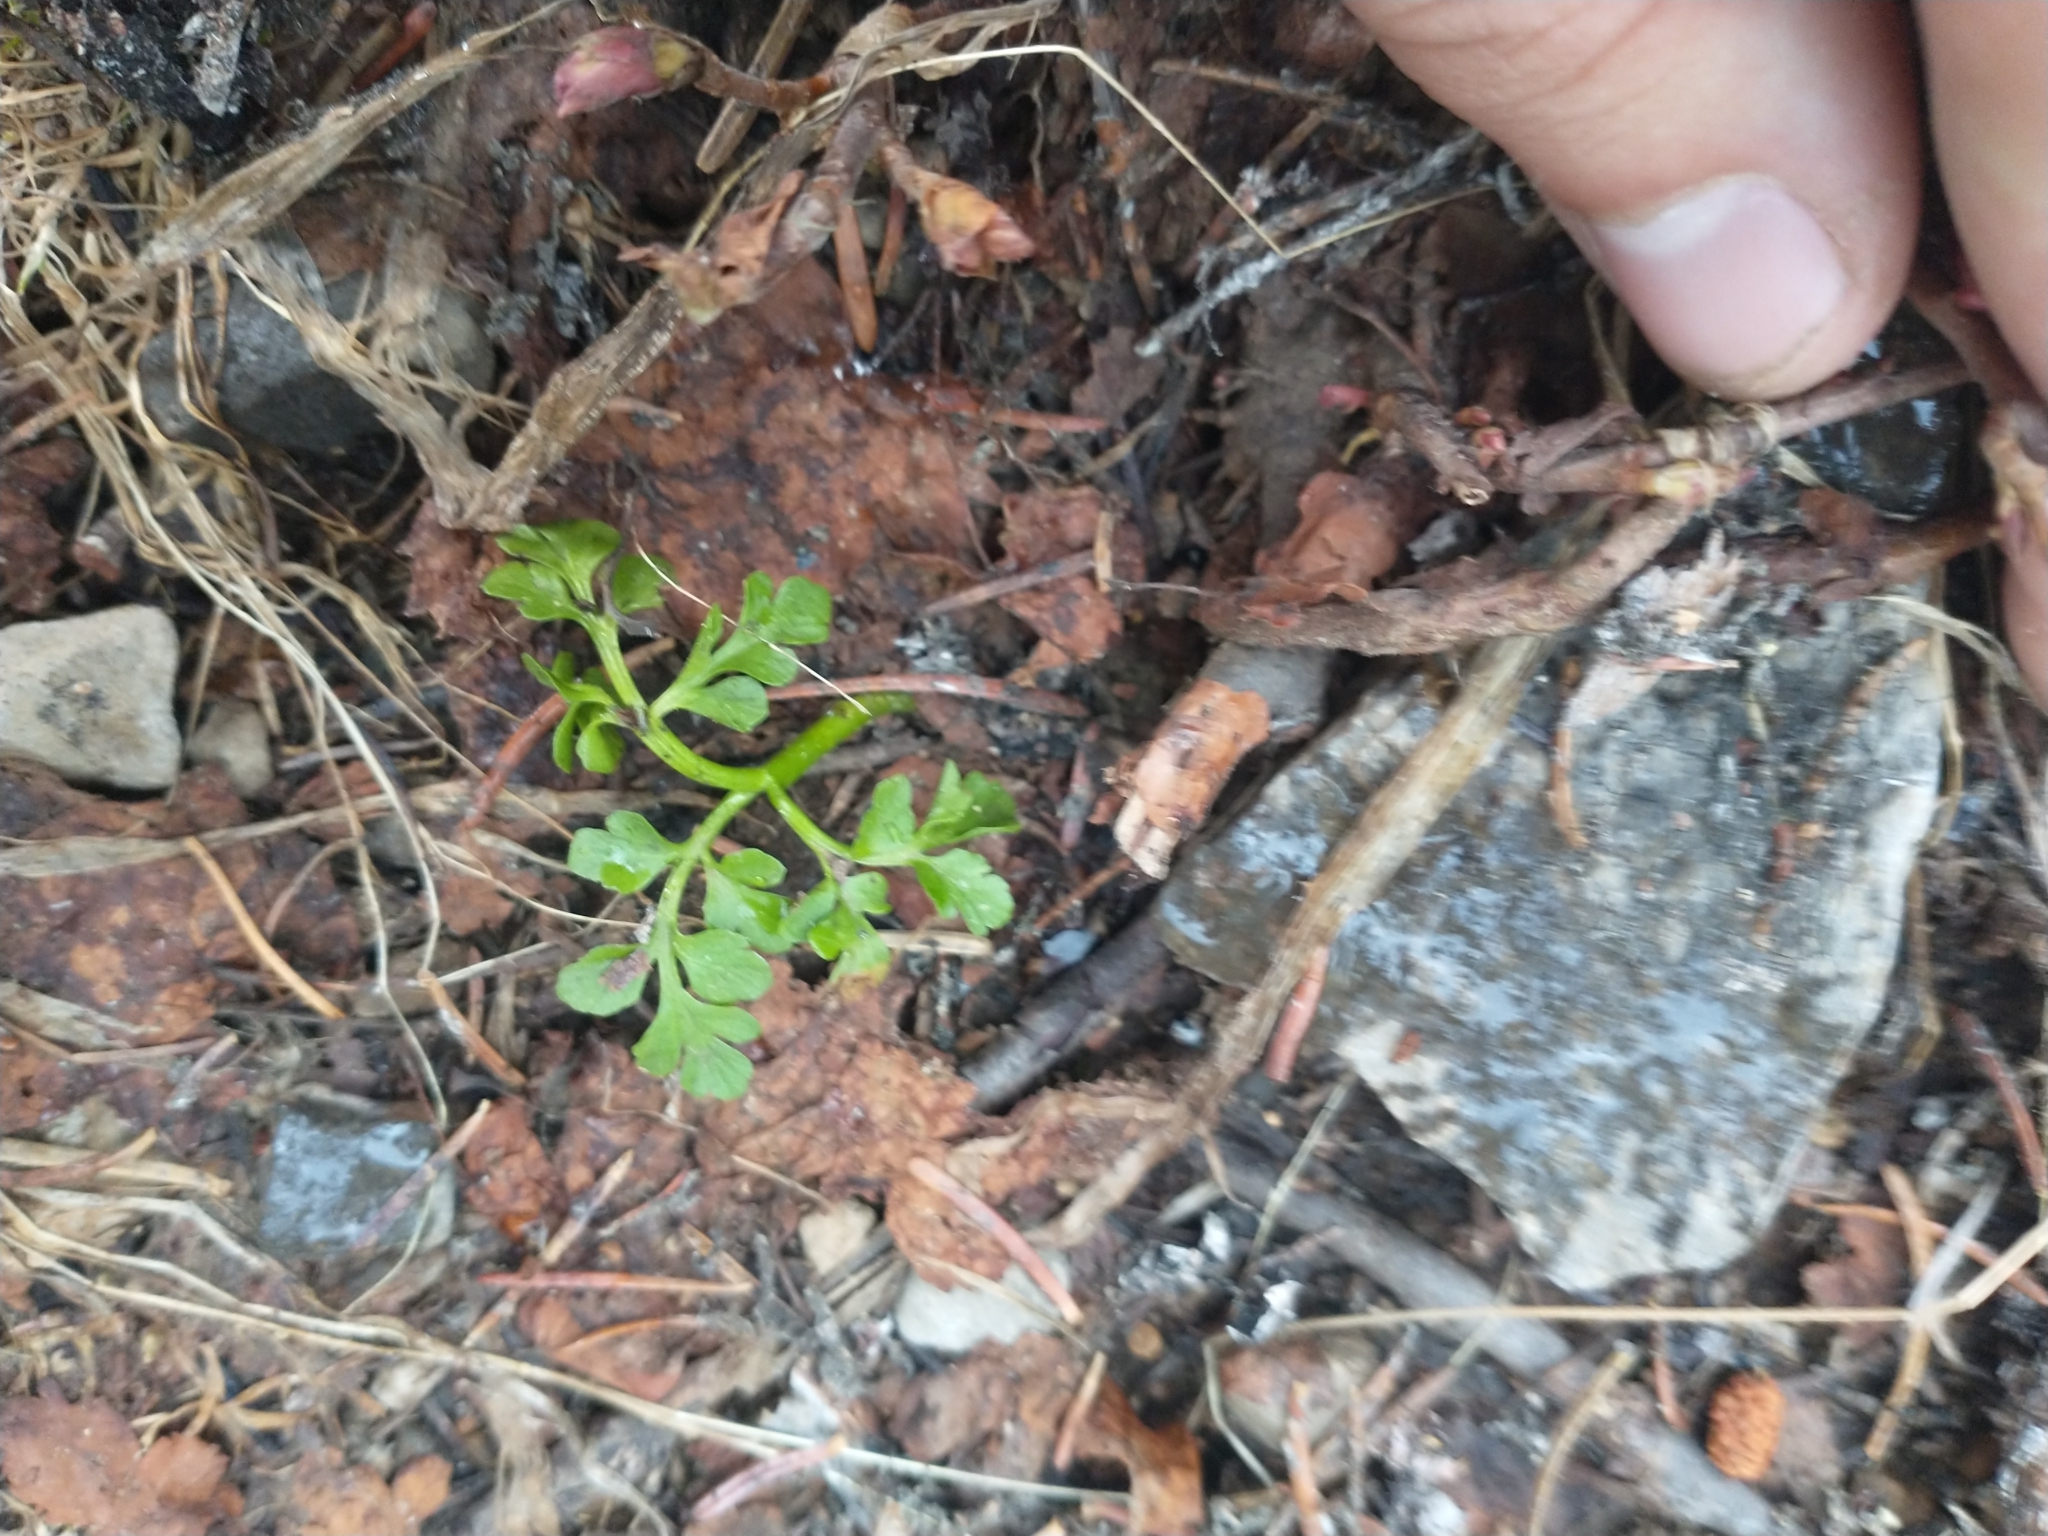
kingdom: Plantae
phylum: Tracheophyta
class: Polypodiopsida
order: Ophioglossales
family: Ophioglossaceae
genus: Sceptridium
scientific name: Sceptridium multifidum
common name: Leathery grape fern
